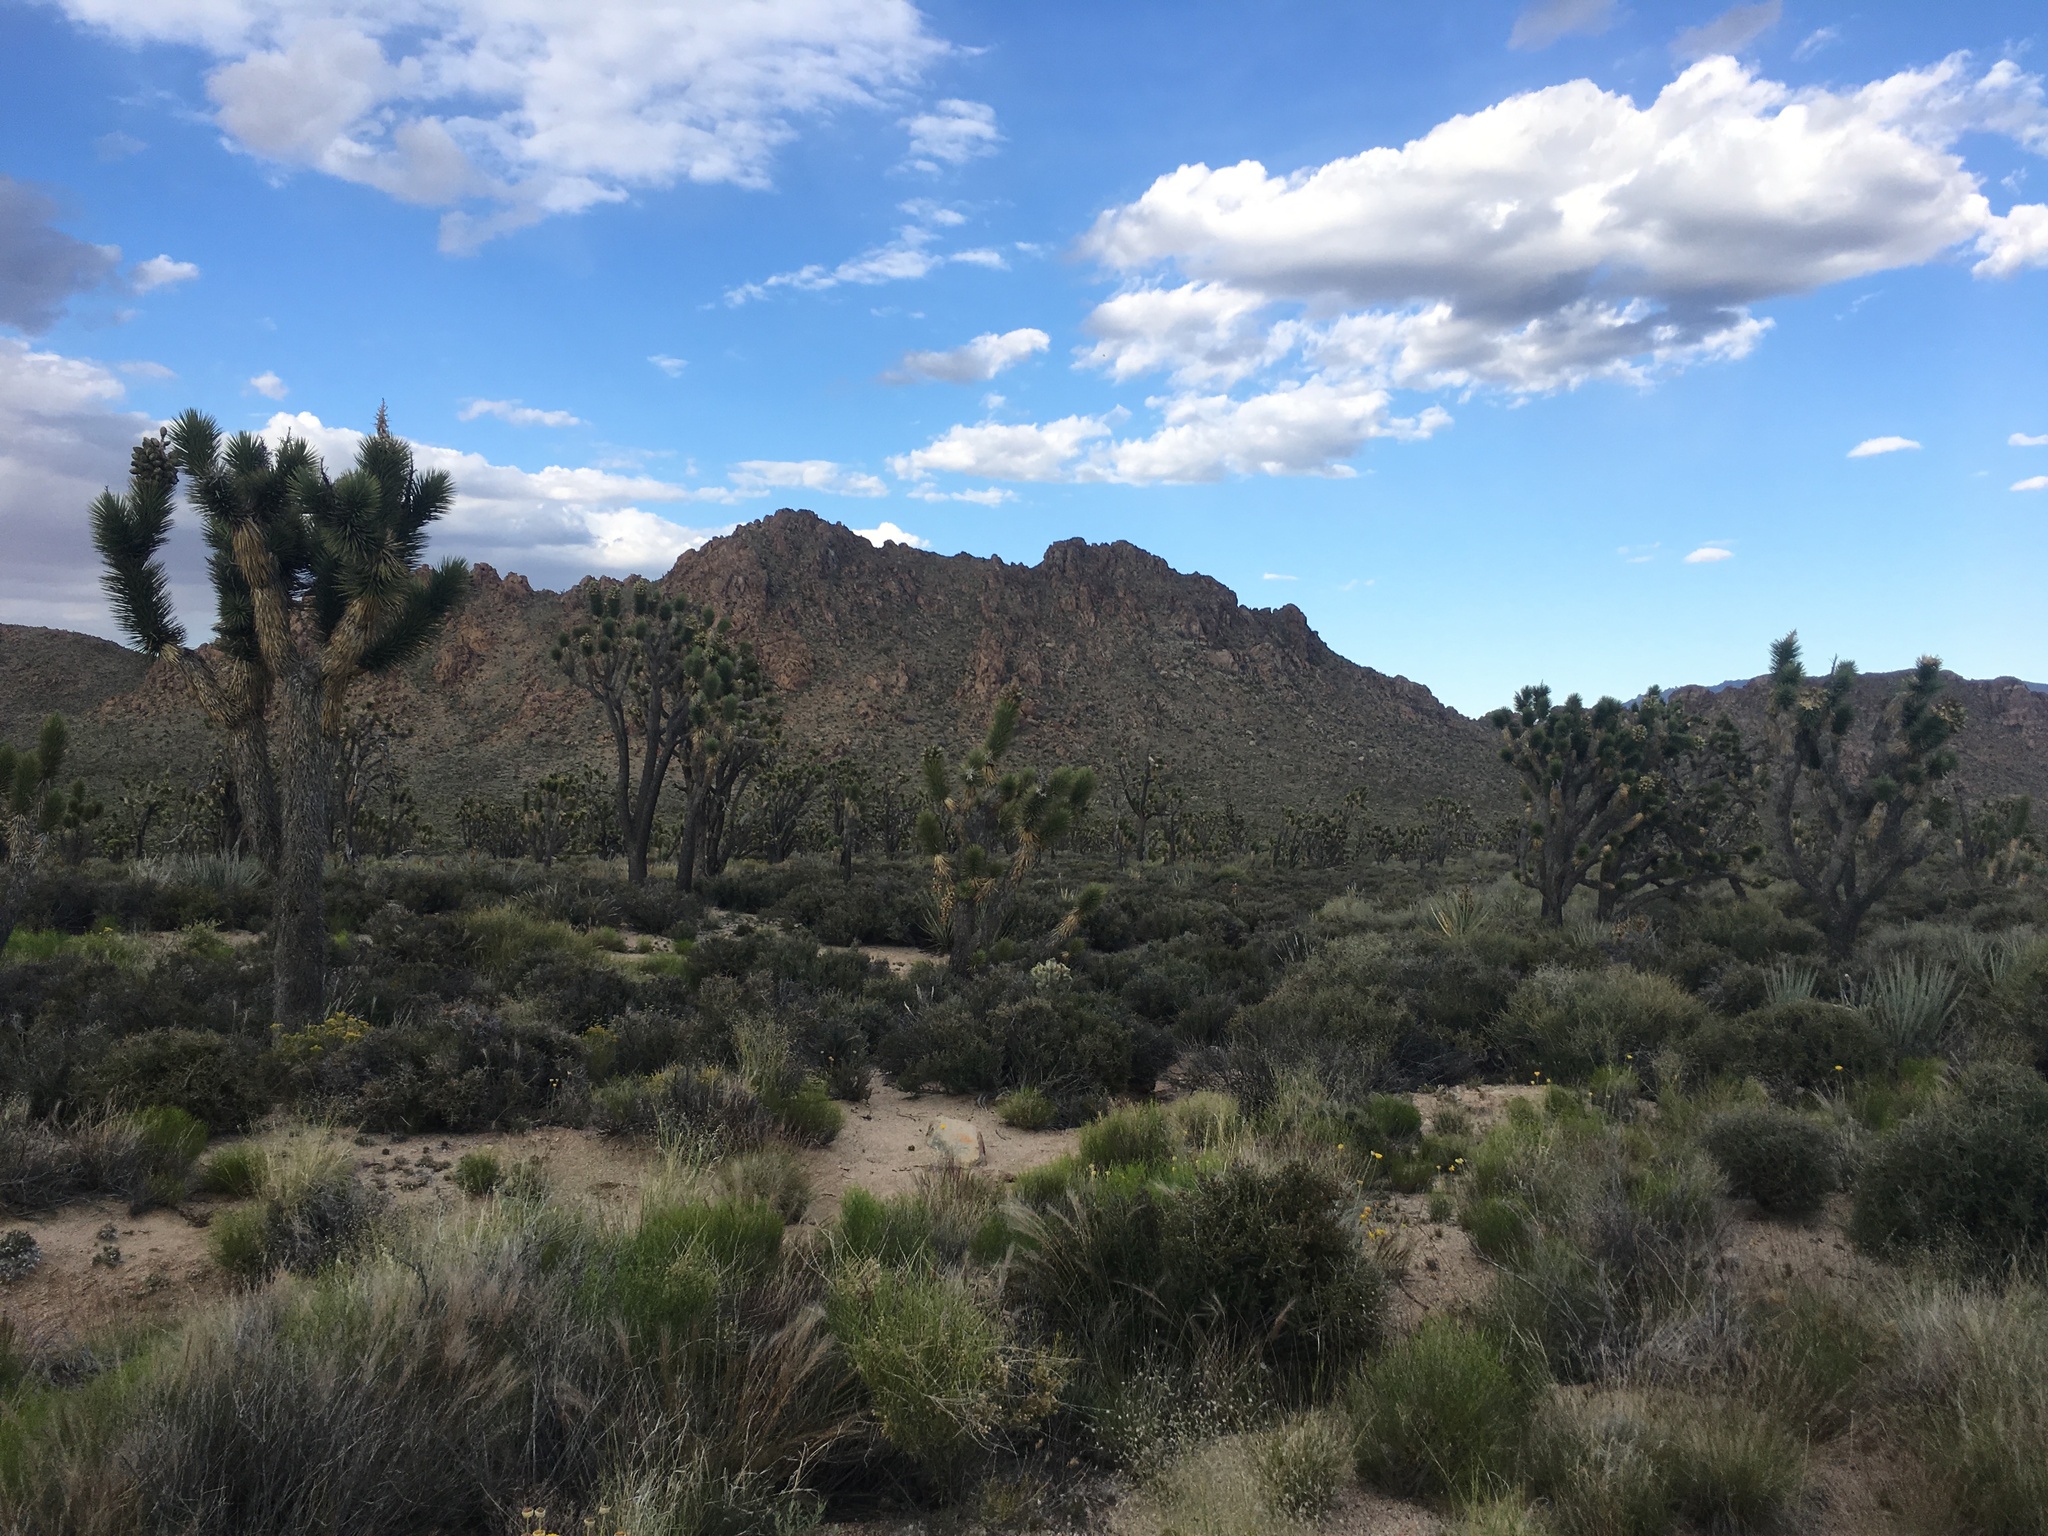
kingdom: Plantae
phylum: Tracheophyta
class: Liliopsida
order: Asparagales
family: Asparagaceae
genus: Yucca
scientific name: Yucca brevifolia
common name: Joshua tree
